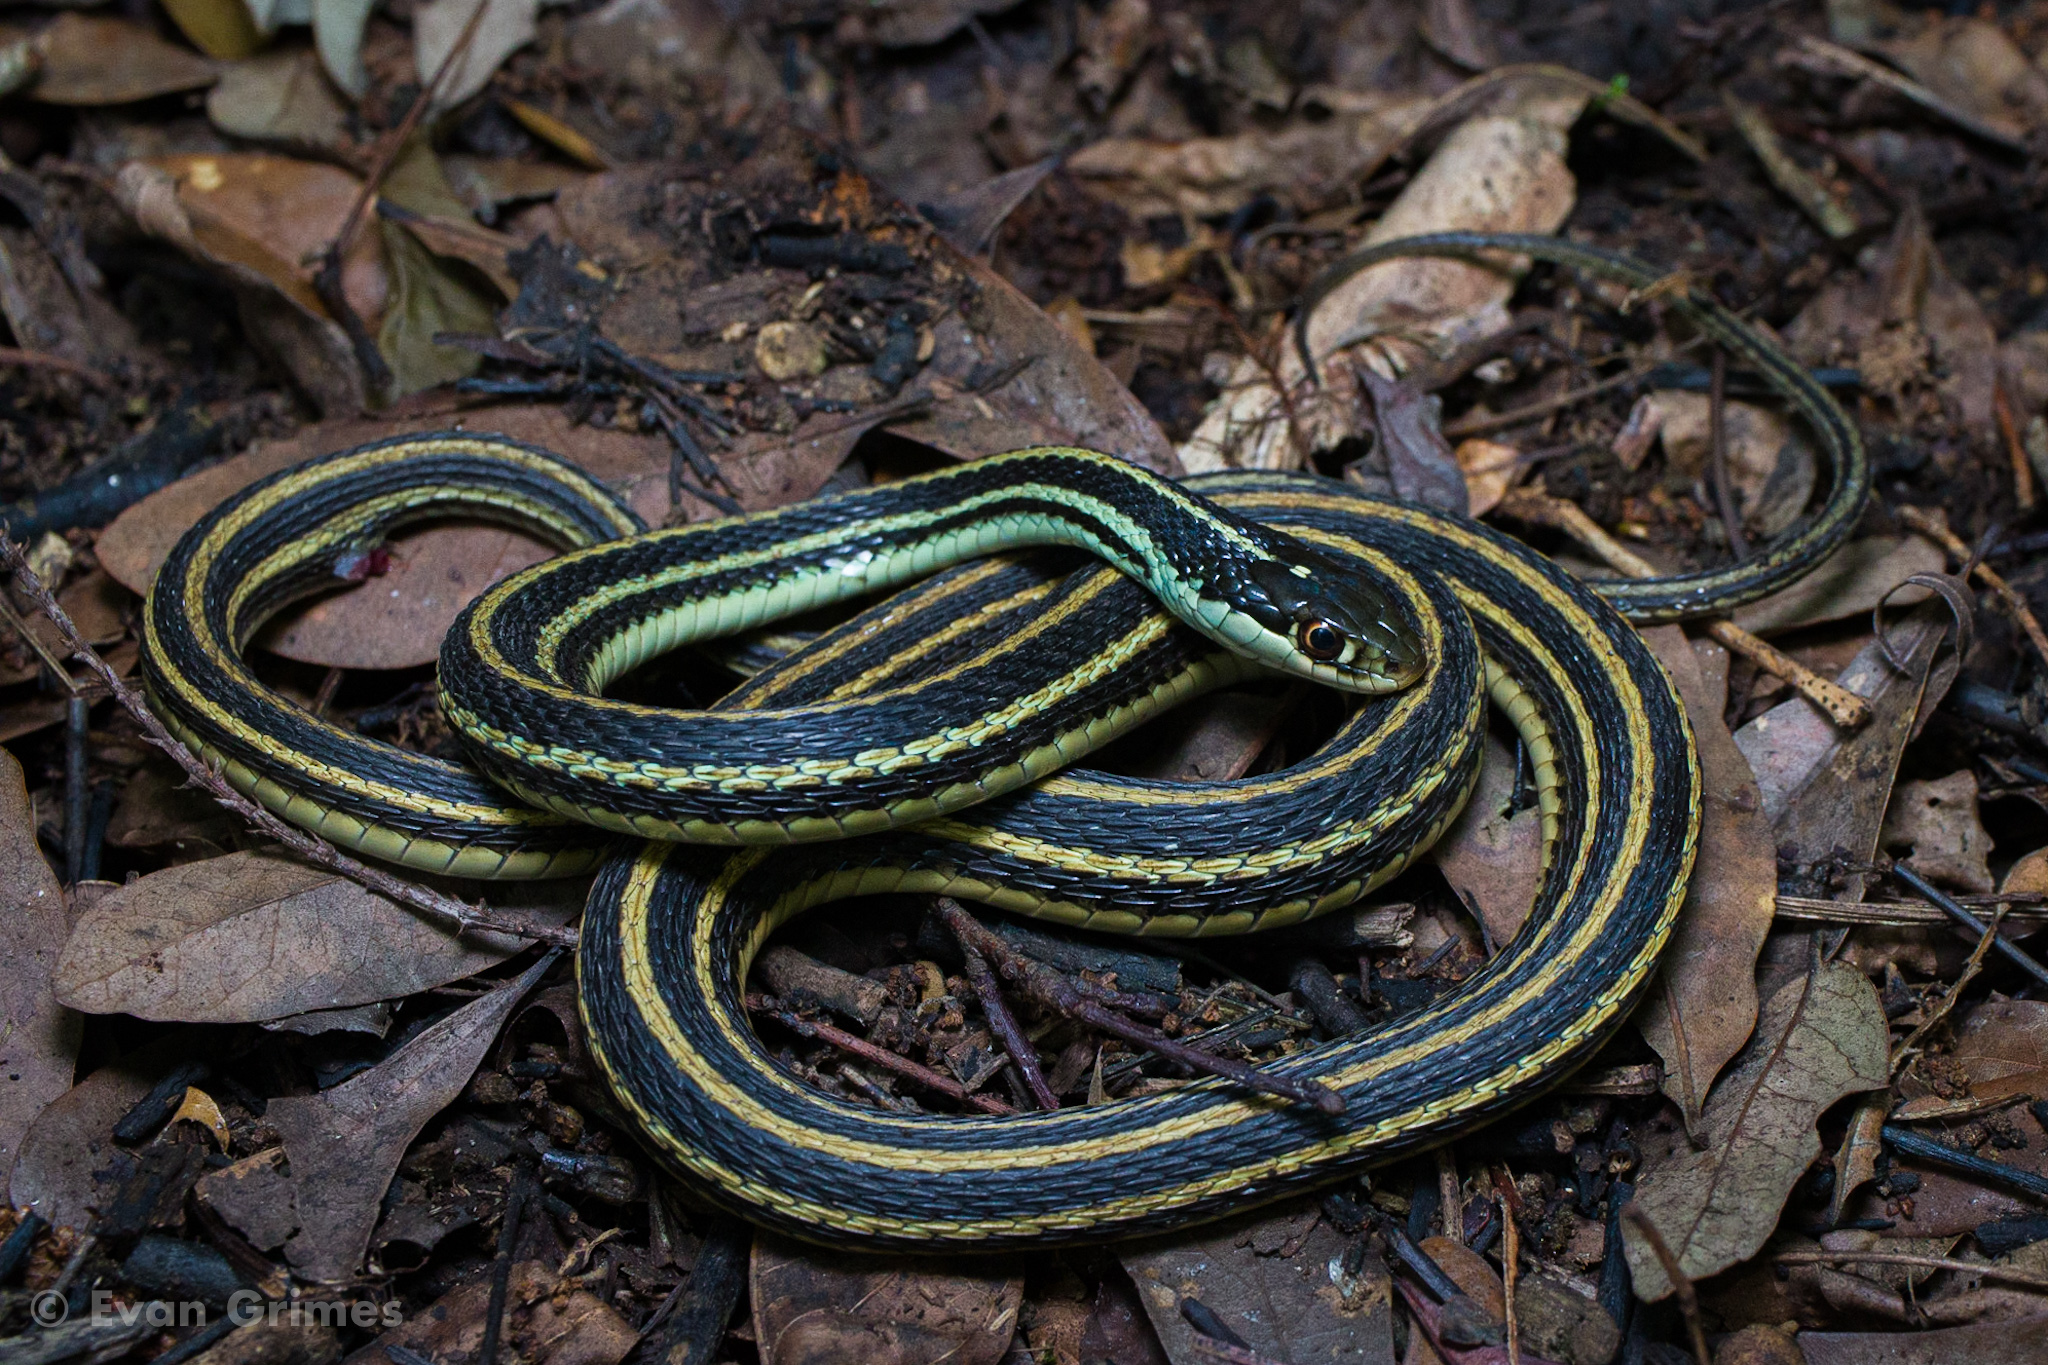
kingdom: Animalia
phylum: Chordata
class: Squamata
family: Colubridae
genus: Thamnophis
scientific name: Thamnophis proximus
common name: Western ribbon snake
